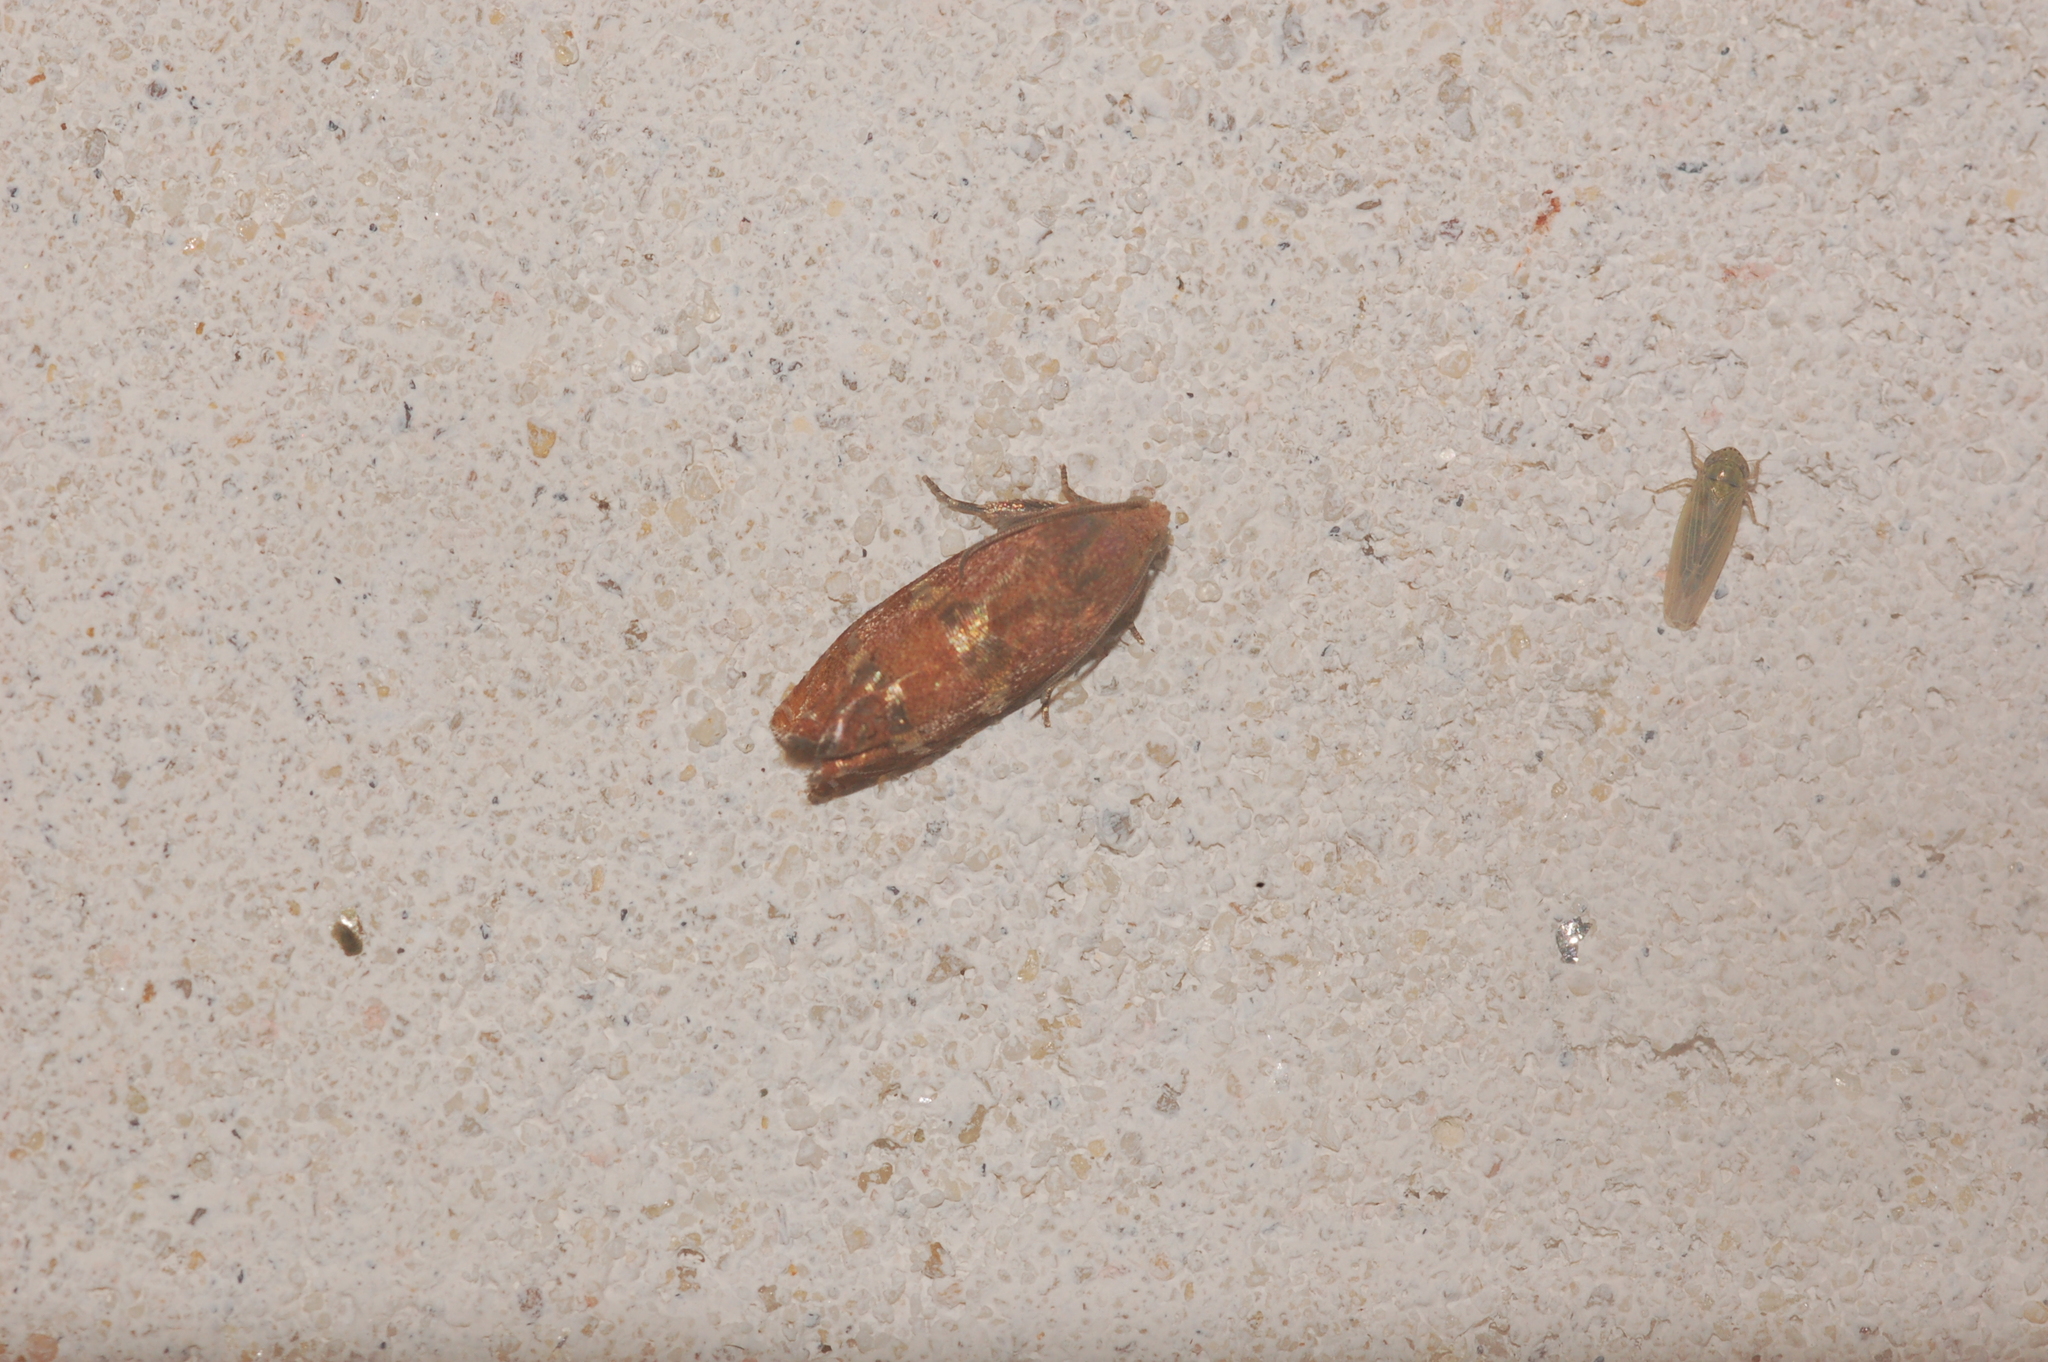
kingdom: Animalia
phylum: Arthropoda
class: Insecta
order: Lepidoptera
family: Tortricidae
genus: Cydia
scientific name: Cydia latiferreana
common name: Filbertworm moth
